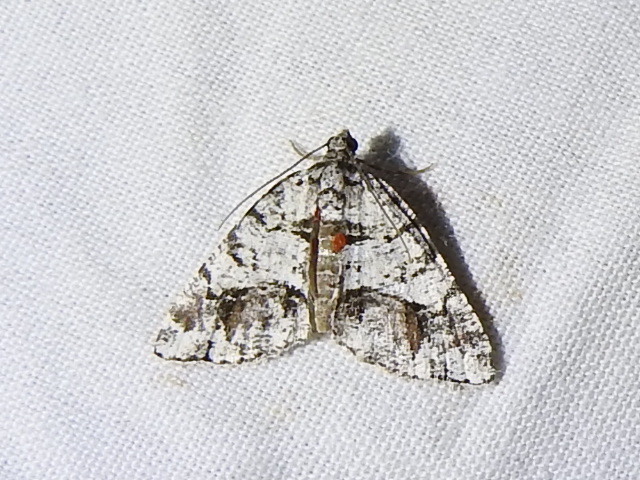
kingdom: Animalia
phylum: Arthropoda
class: Insecta
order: Lepidoptera
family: Geometridae
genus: Macaria
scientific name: Macaria graphidaria
